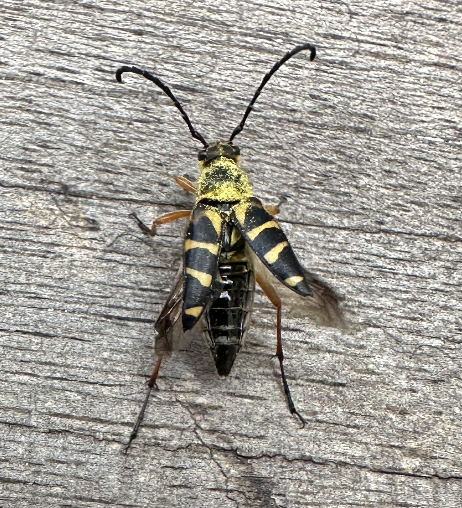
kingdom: Animalia
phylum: Arthropoda
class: Insecta
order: Coleoptera
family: Cerambycidae
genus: Typocerus
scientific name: Typocerus zebra
